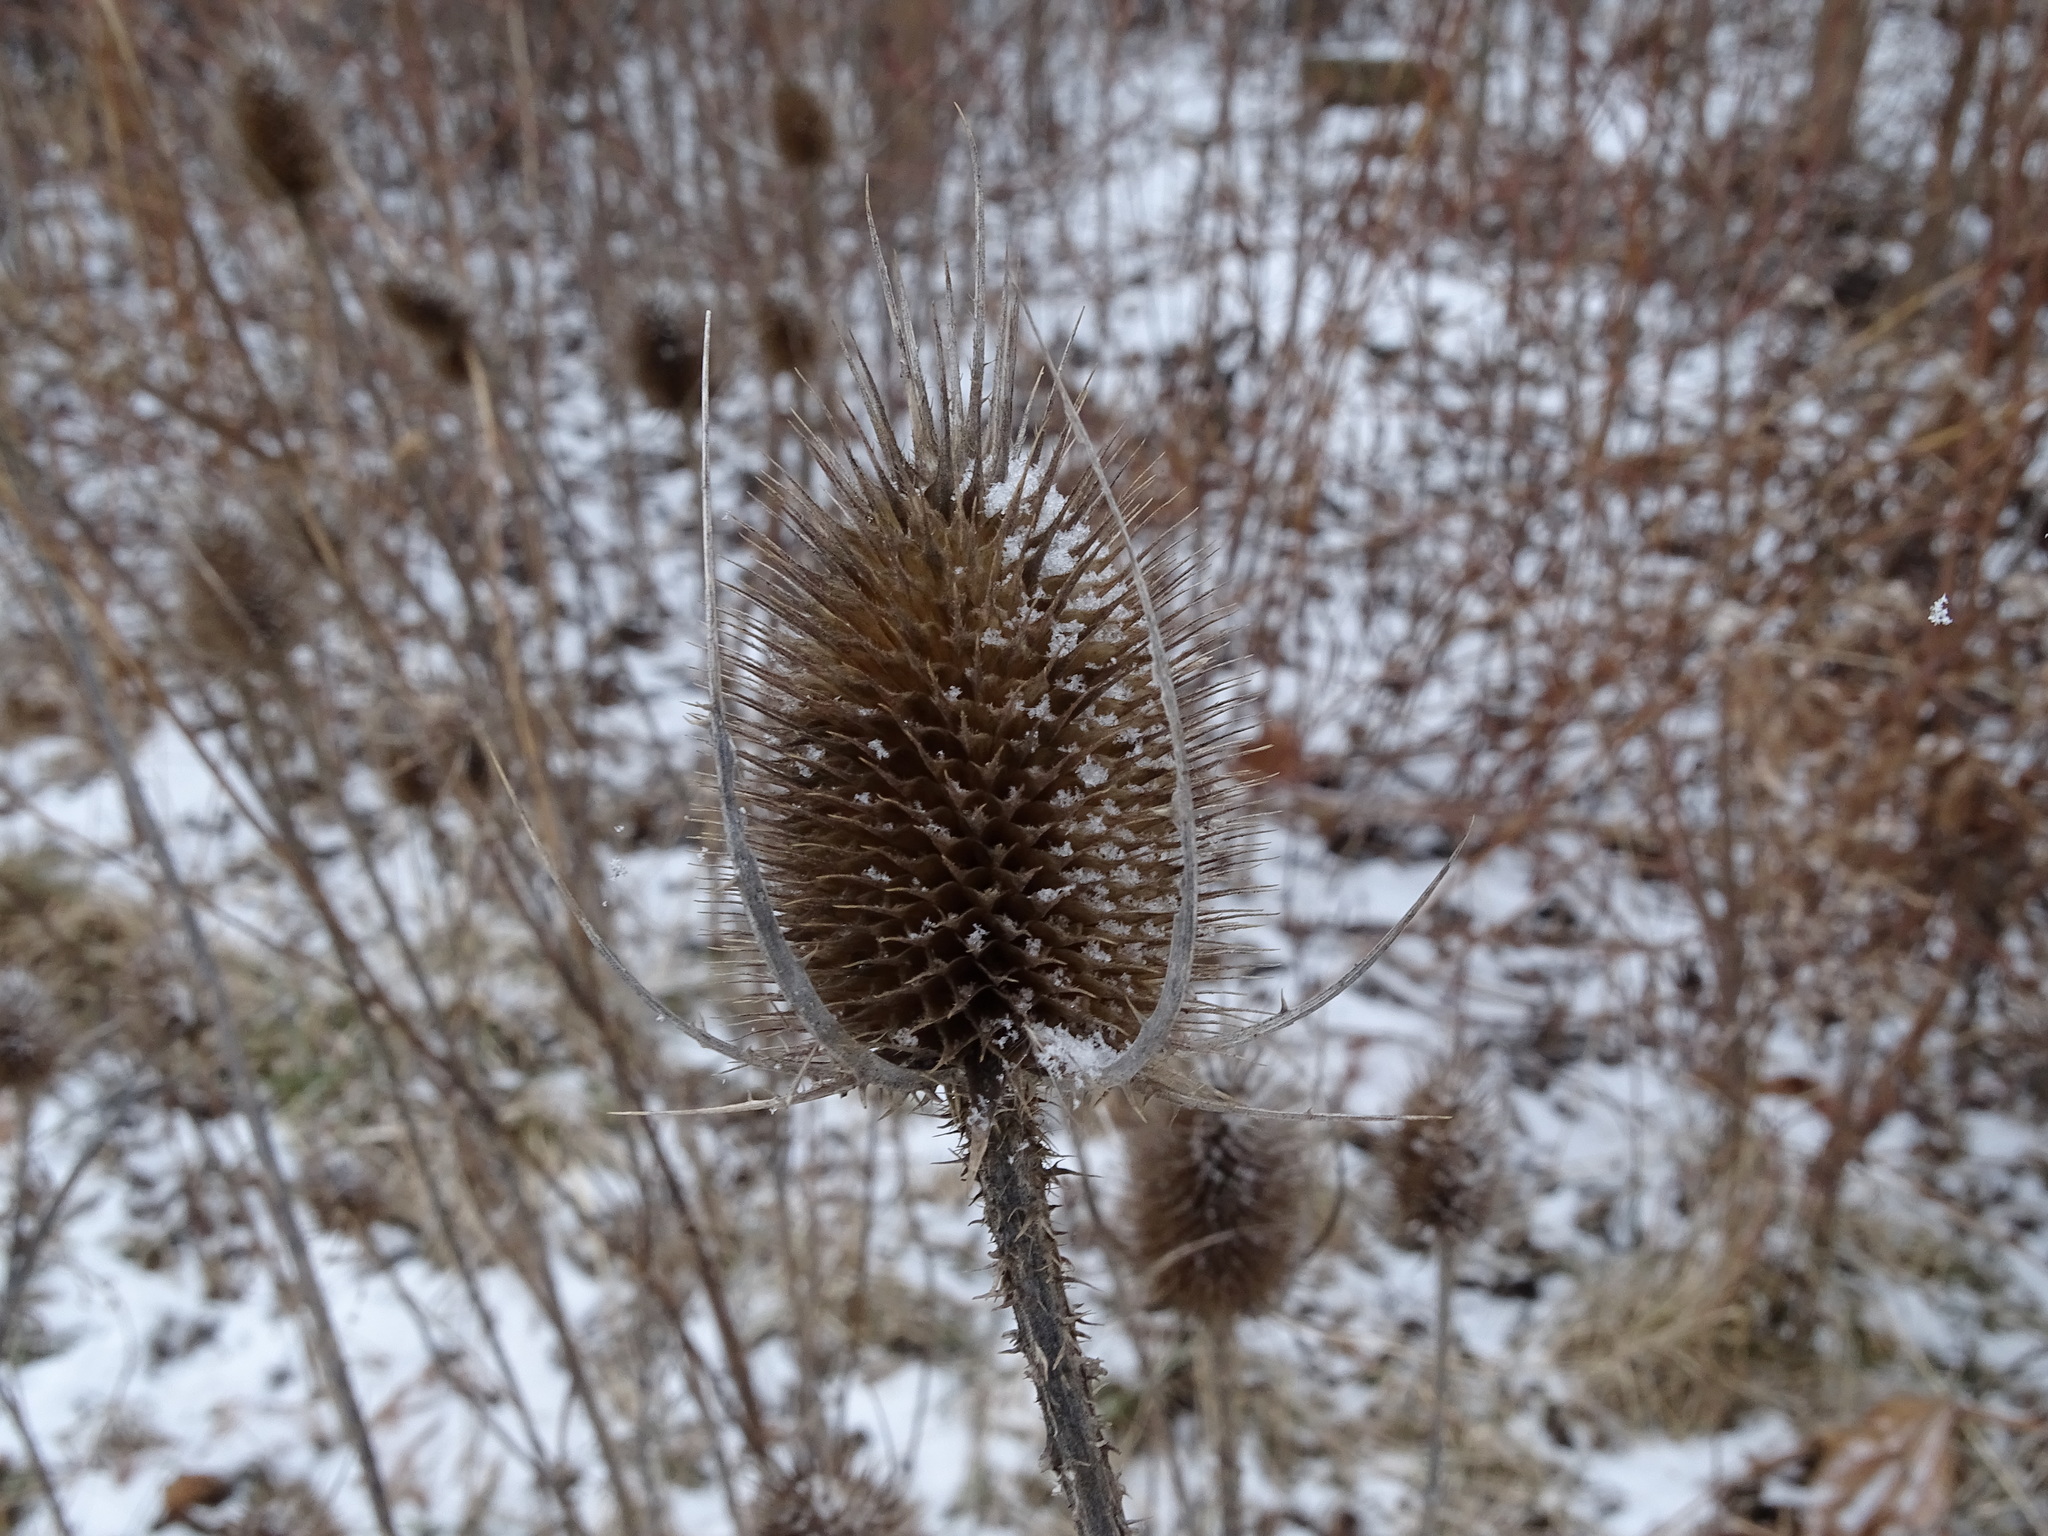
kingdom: Plantae
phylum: Tracheophyta
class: Magnoliopsida
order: Dipsacales
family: Caprifoliaceae
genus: Dipsacus
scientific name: Dipsacus fullonum
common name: Teasel
